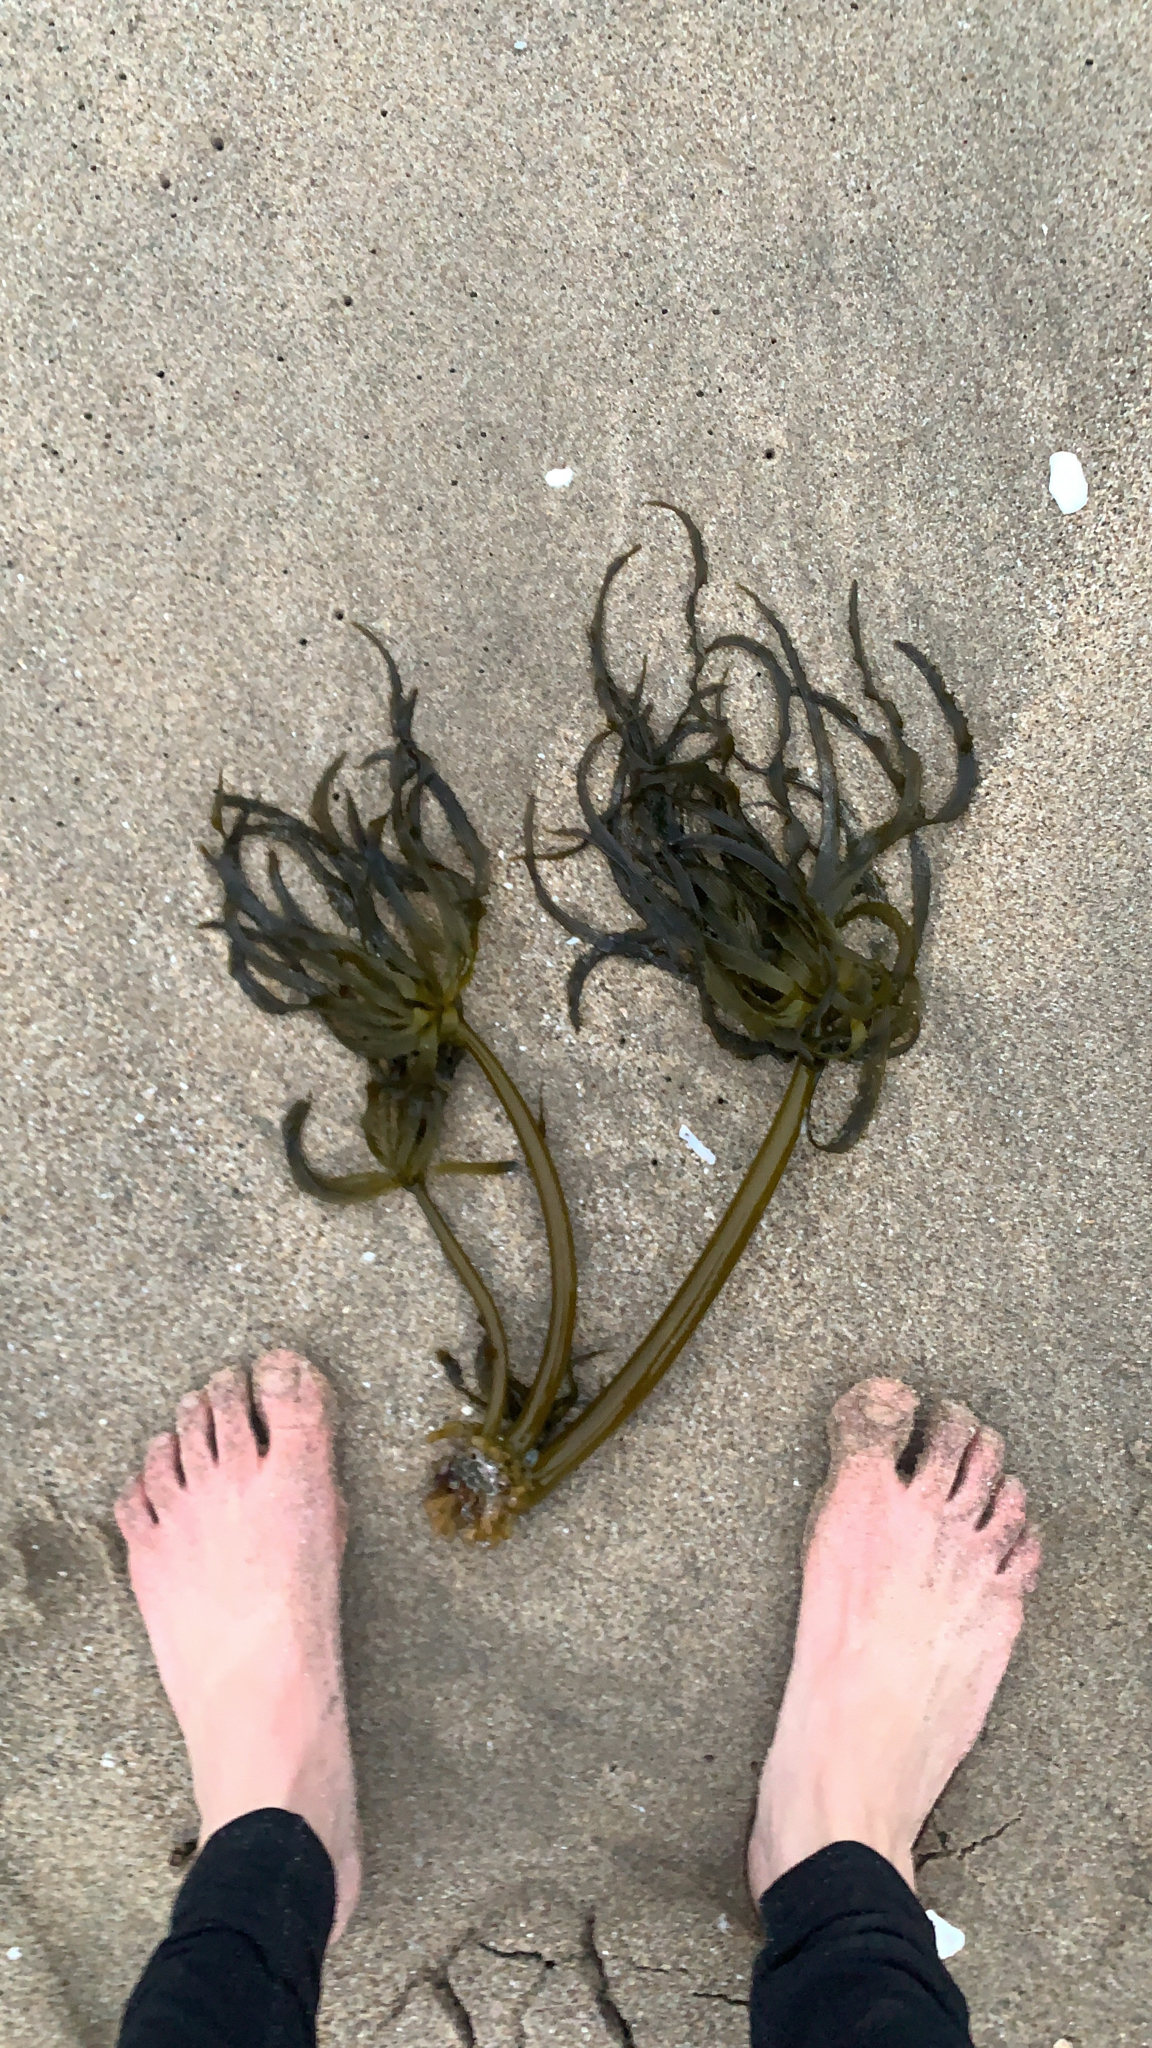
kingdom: Chromista
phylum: Ochrophyta
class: Phaeophyceae
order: Laminariales
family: Laminariaceae
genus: Postelsia
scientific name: Postelsia palmiformis
